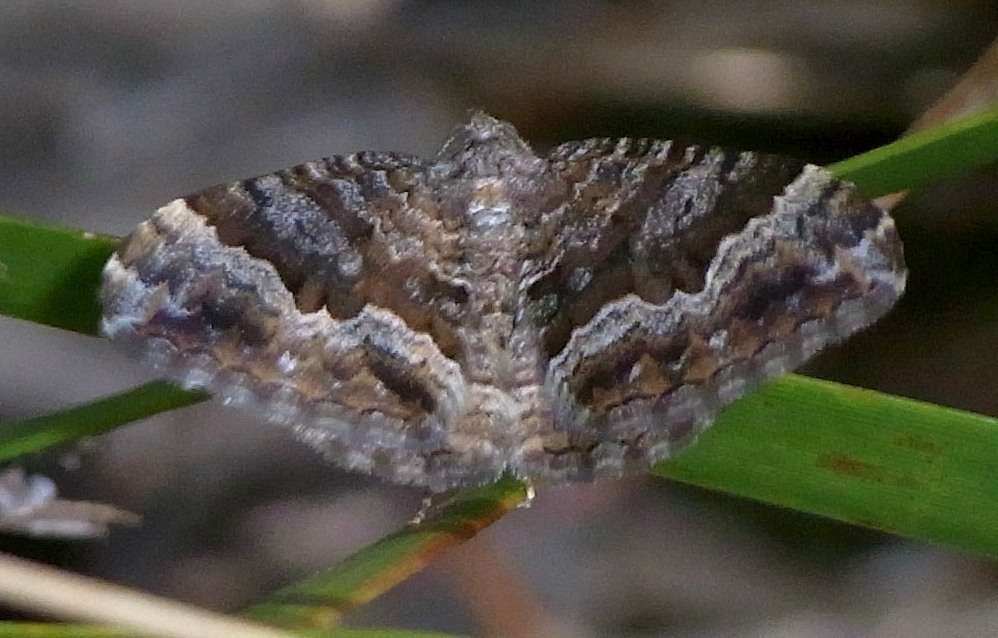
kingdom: Animalia
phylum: Arthropoda
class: Insecta
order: Lepidoptera
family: Geometridae
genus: Xanthorhoe
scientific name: Xanthorhoe vacuaria
